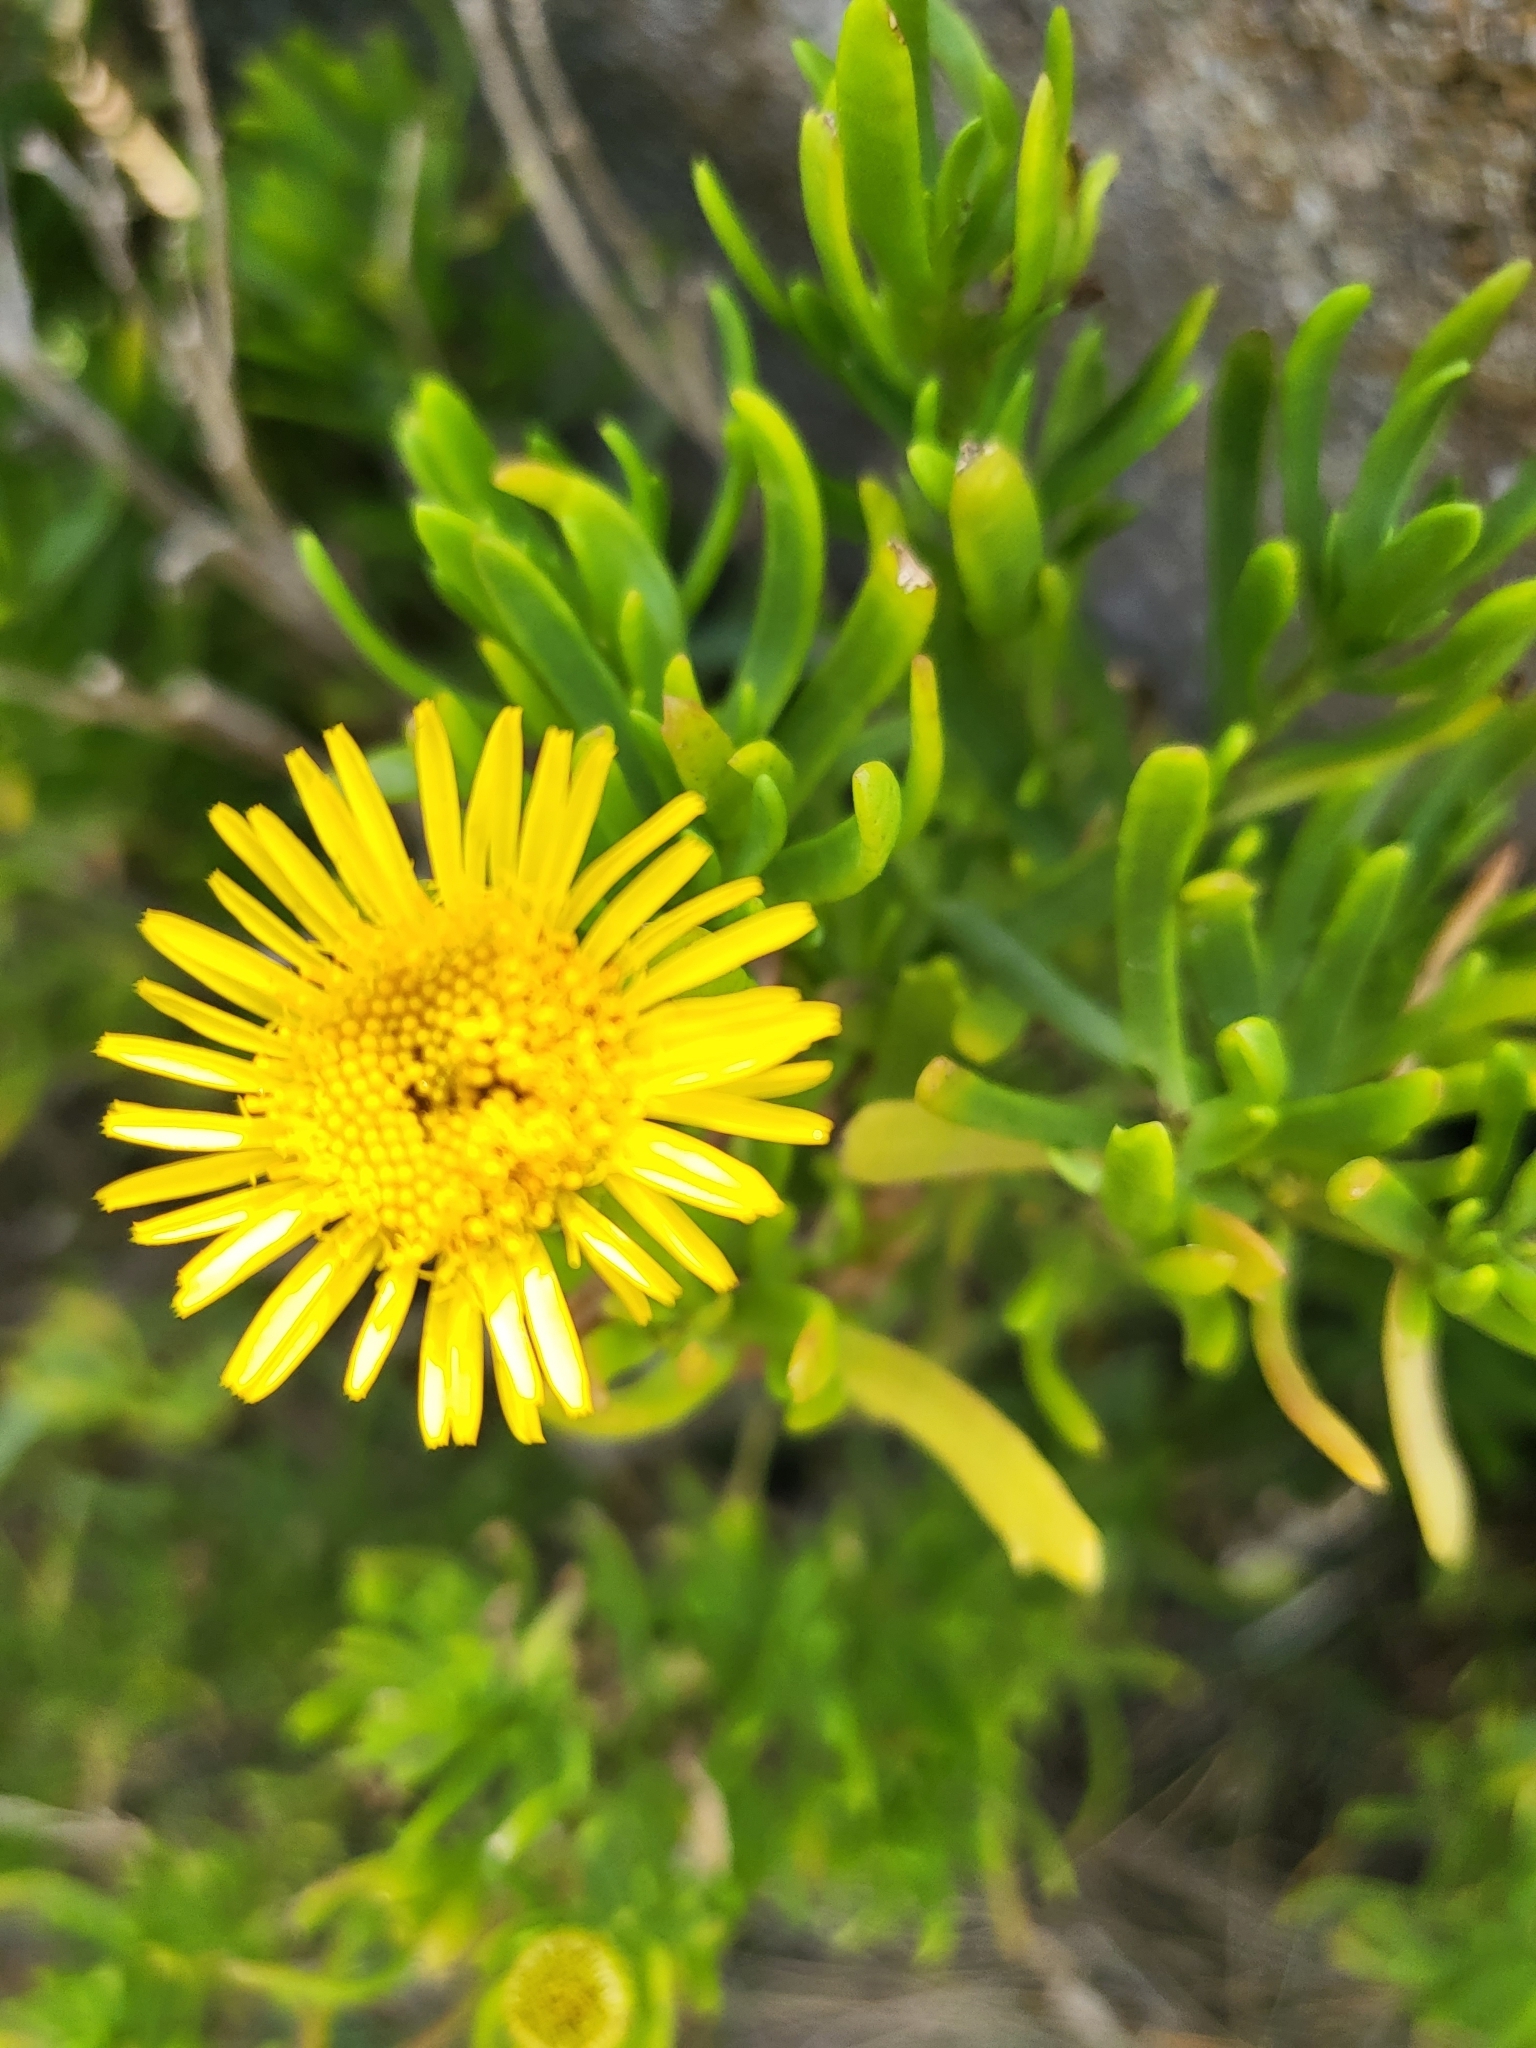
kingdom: Plantae
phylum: Tracheophyta
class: Magnoliopsida
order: Asterales
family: Asteraceae
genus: Limbarda
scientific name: Limbarda crithmoides
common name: Golden samphire
